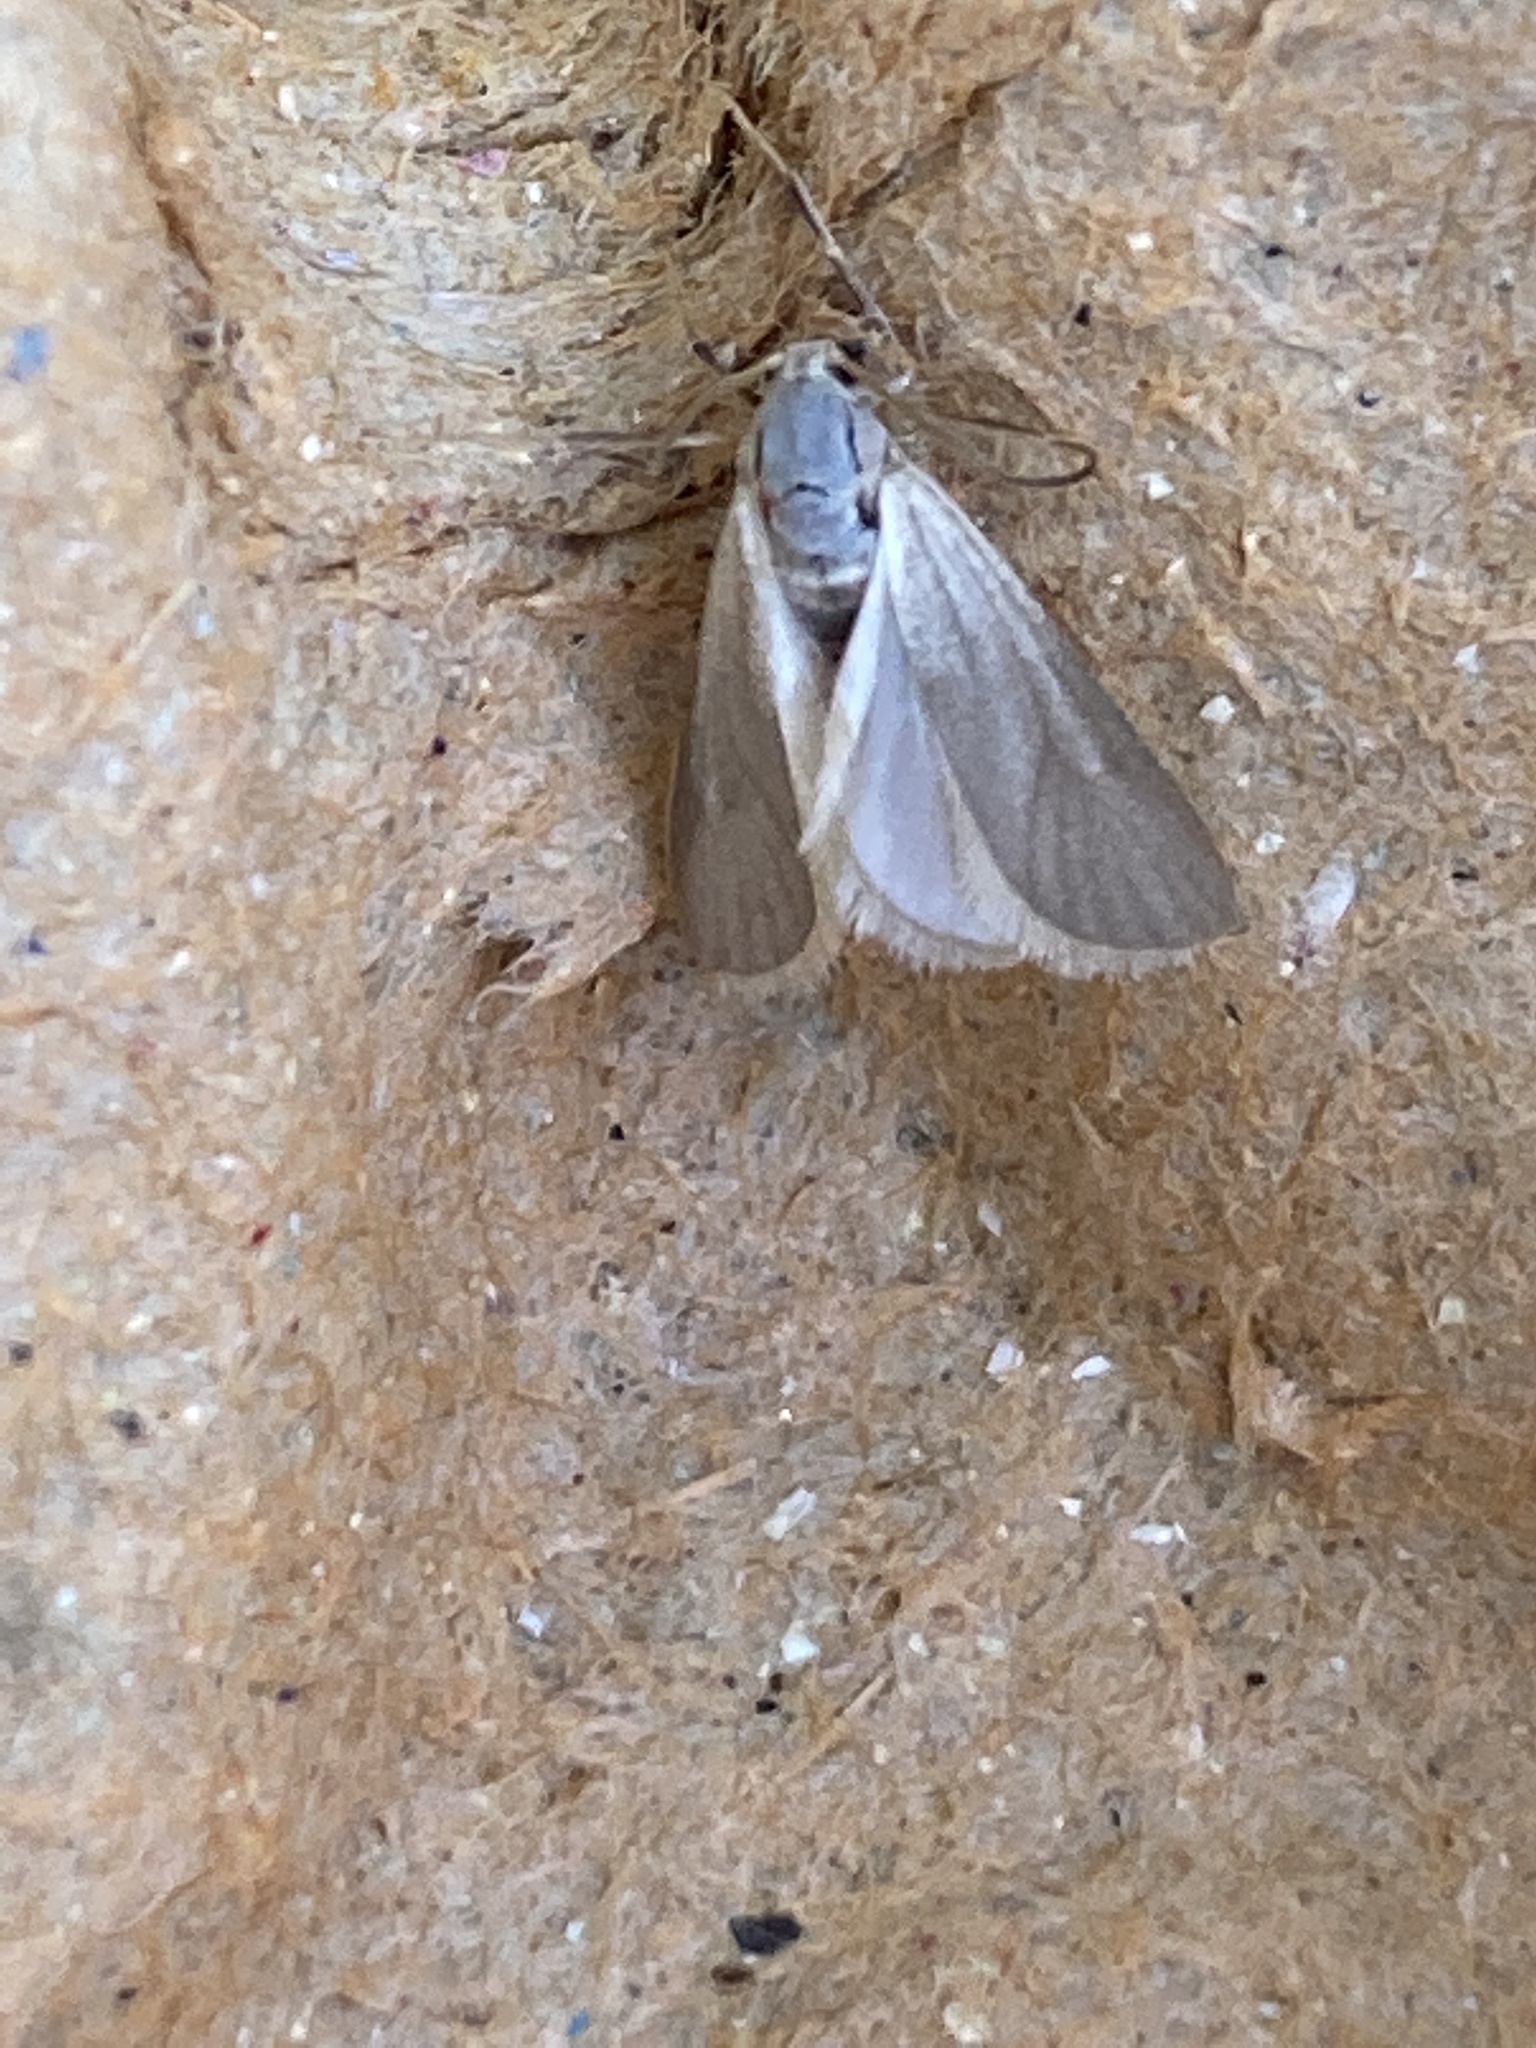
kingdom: Animalia
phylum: Arthropoda
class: Insecta
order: Lepidoptera
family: Crambidae
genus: Acentria
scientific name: Acentria ephemerella
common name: European water moth
